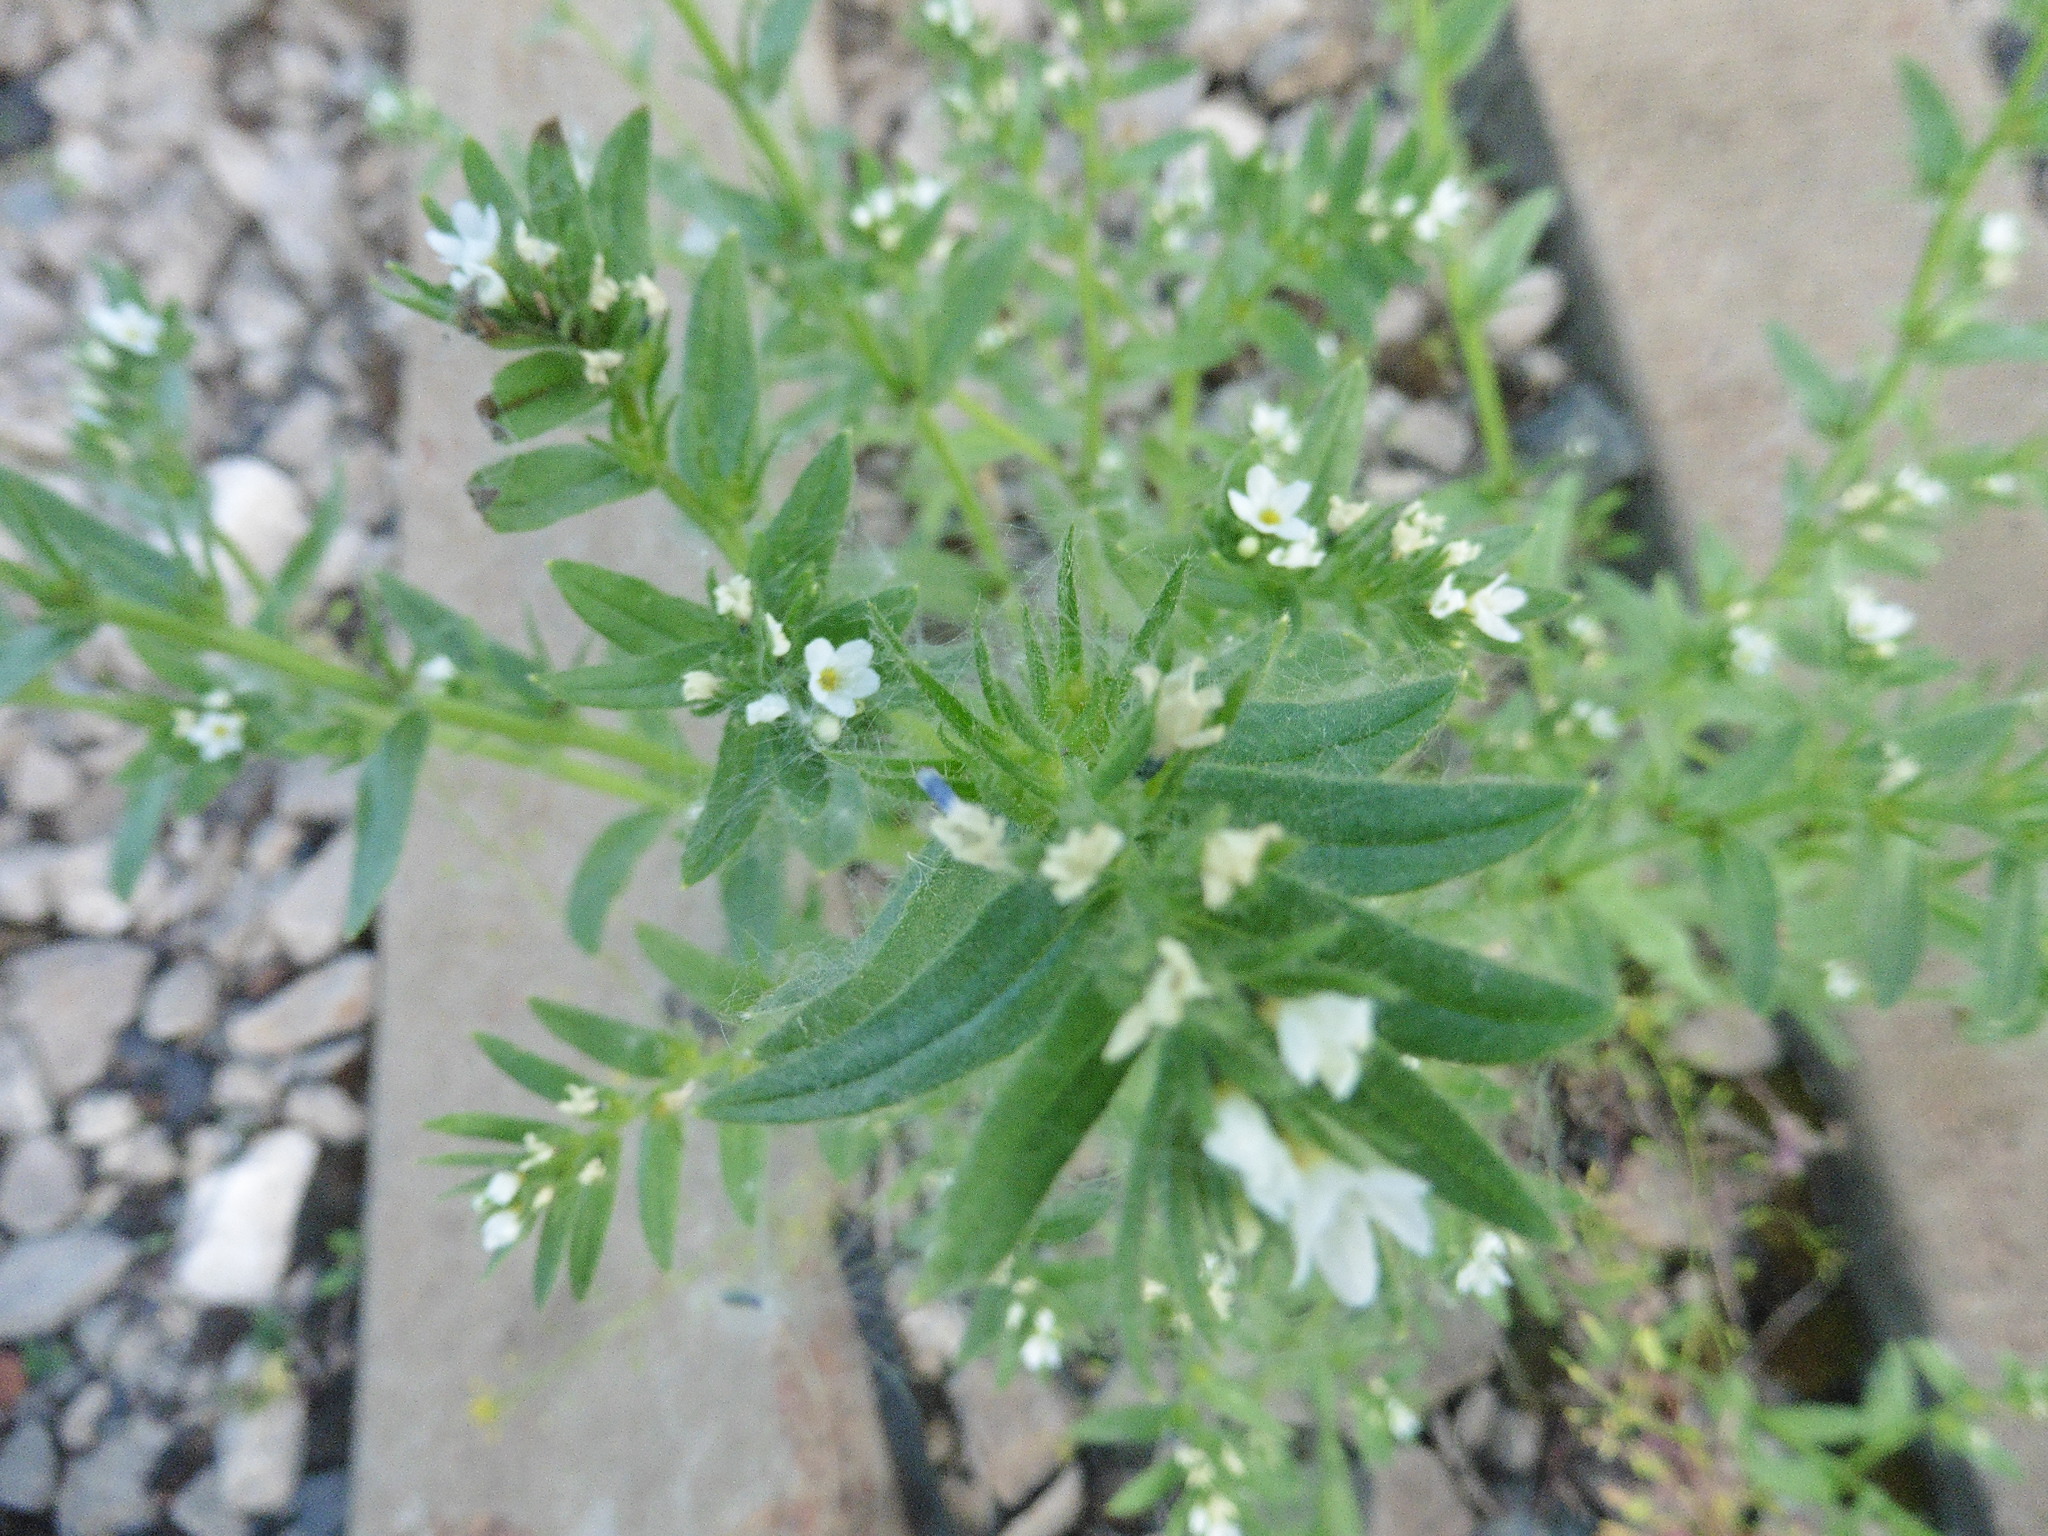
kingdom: Plantae
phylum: Tracheophyta
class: Magnoliopsida
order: Boraginales
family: Boraginaceae
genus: Buglossoides
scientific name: Buglossoides arvensis
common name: Corn gromwell
